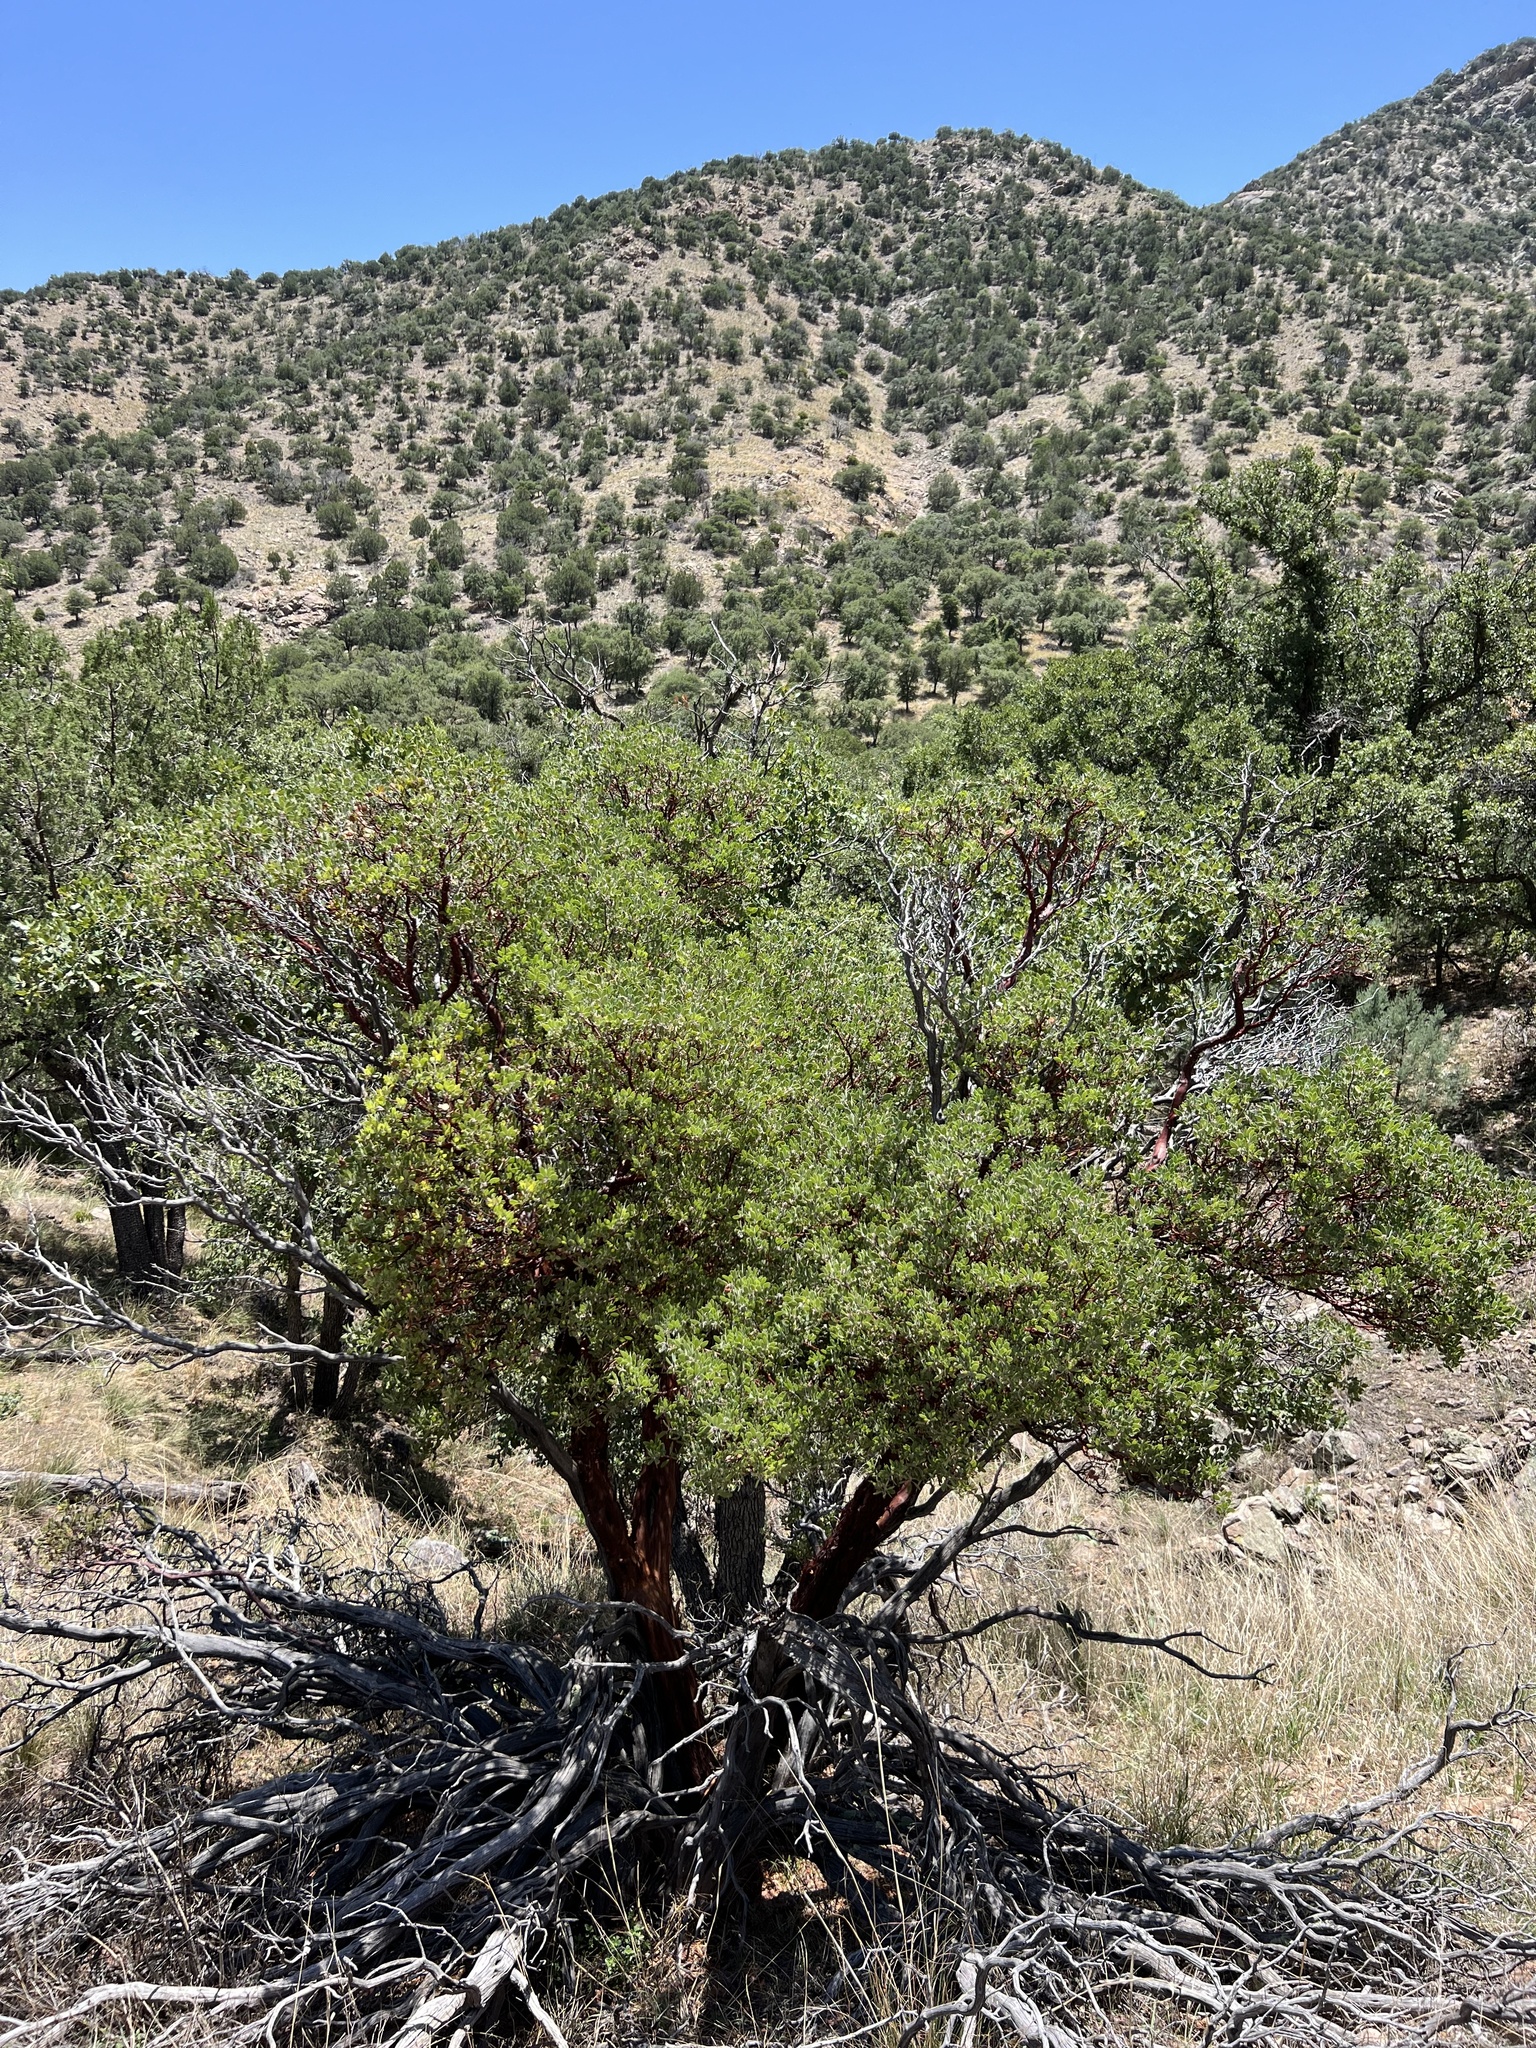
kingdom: Plantae
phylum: Tracheophyta
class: Magnoliopsida
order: Ericales
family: Ericaceae
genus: Arctostaphylos
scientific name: Arctostaphylos pungens
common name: Mexican manzanita
